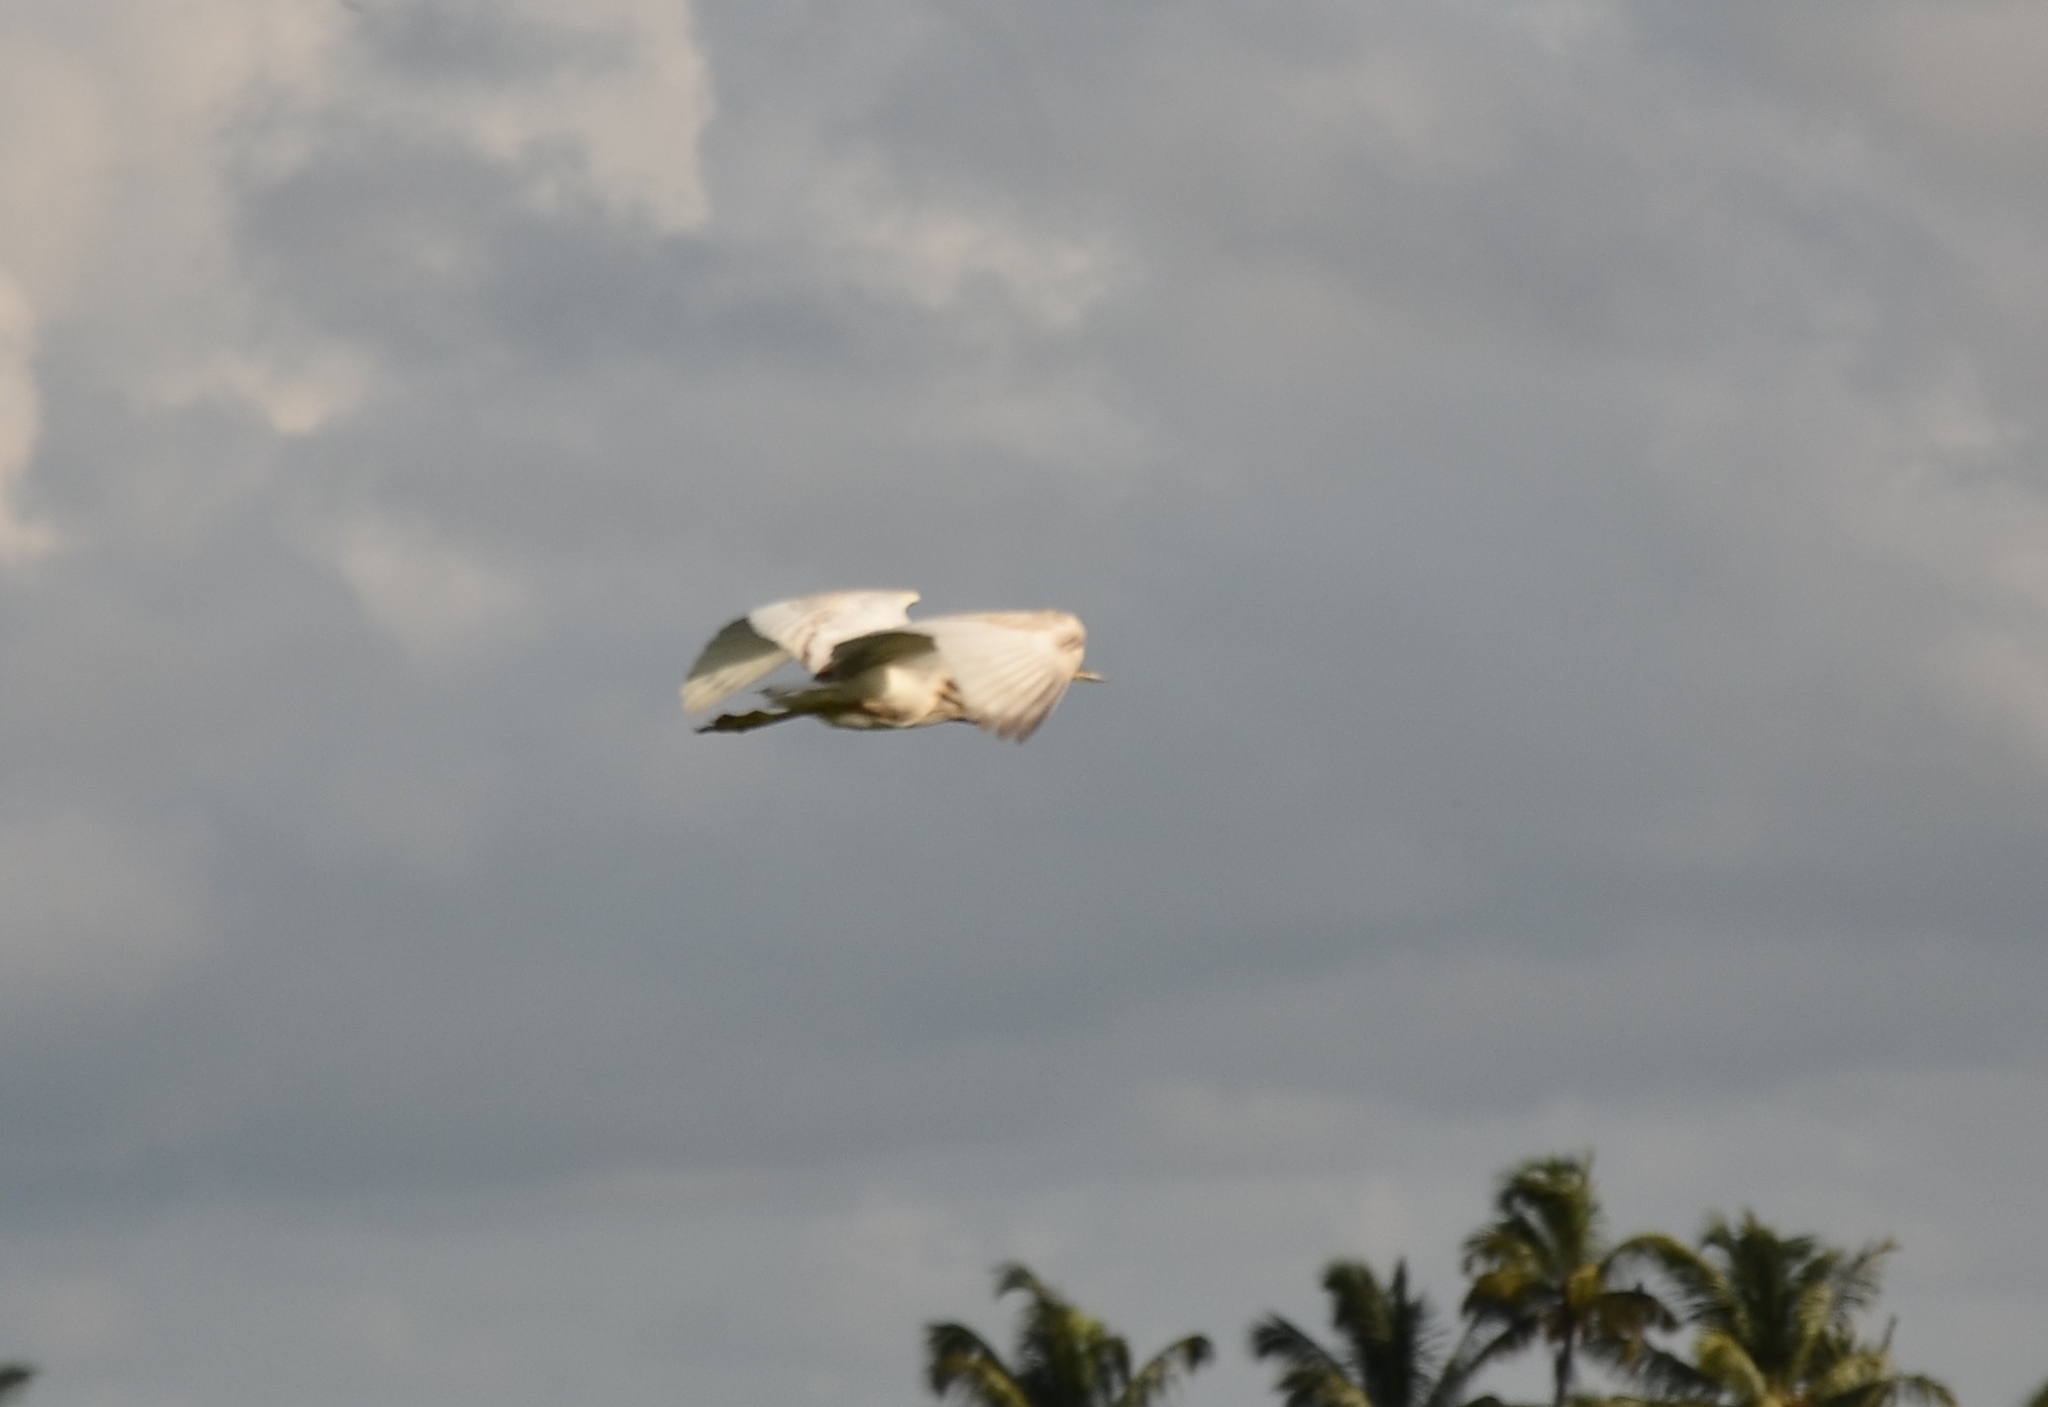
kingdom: Animalia
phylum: Chordata
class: Aves
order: Pelecaniformes
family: Ardeidae
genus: Ardeola
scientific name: Ardeola grayii
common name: Indian pond heron
